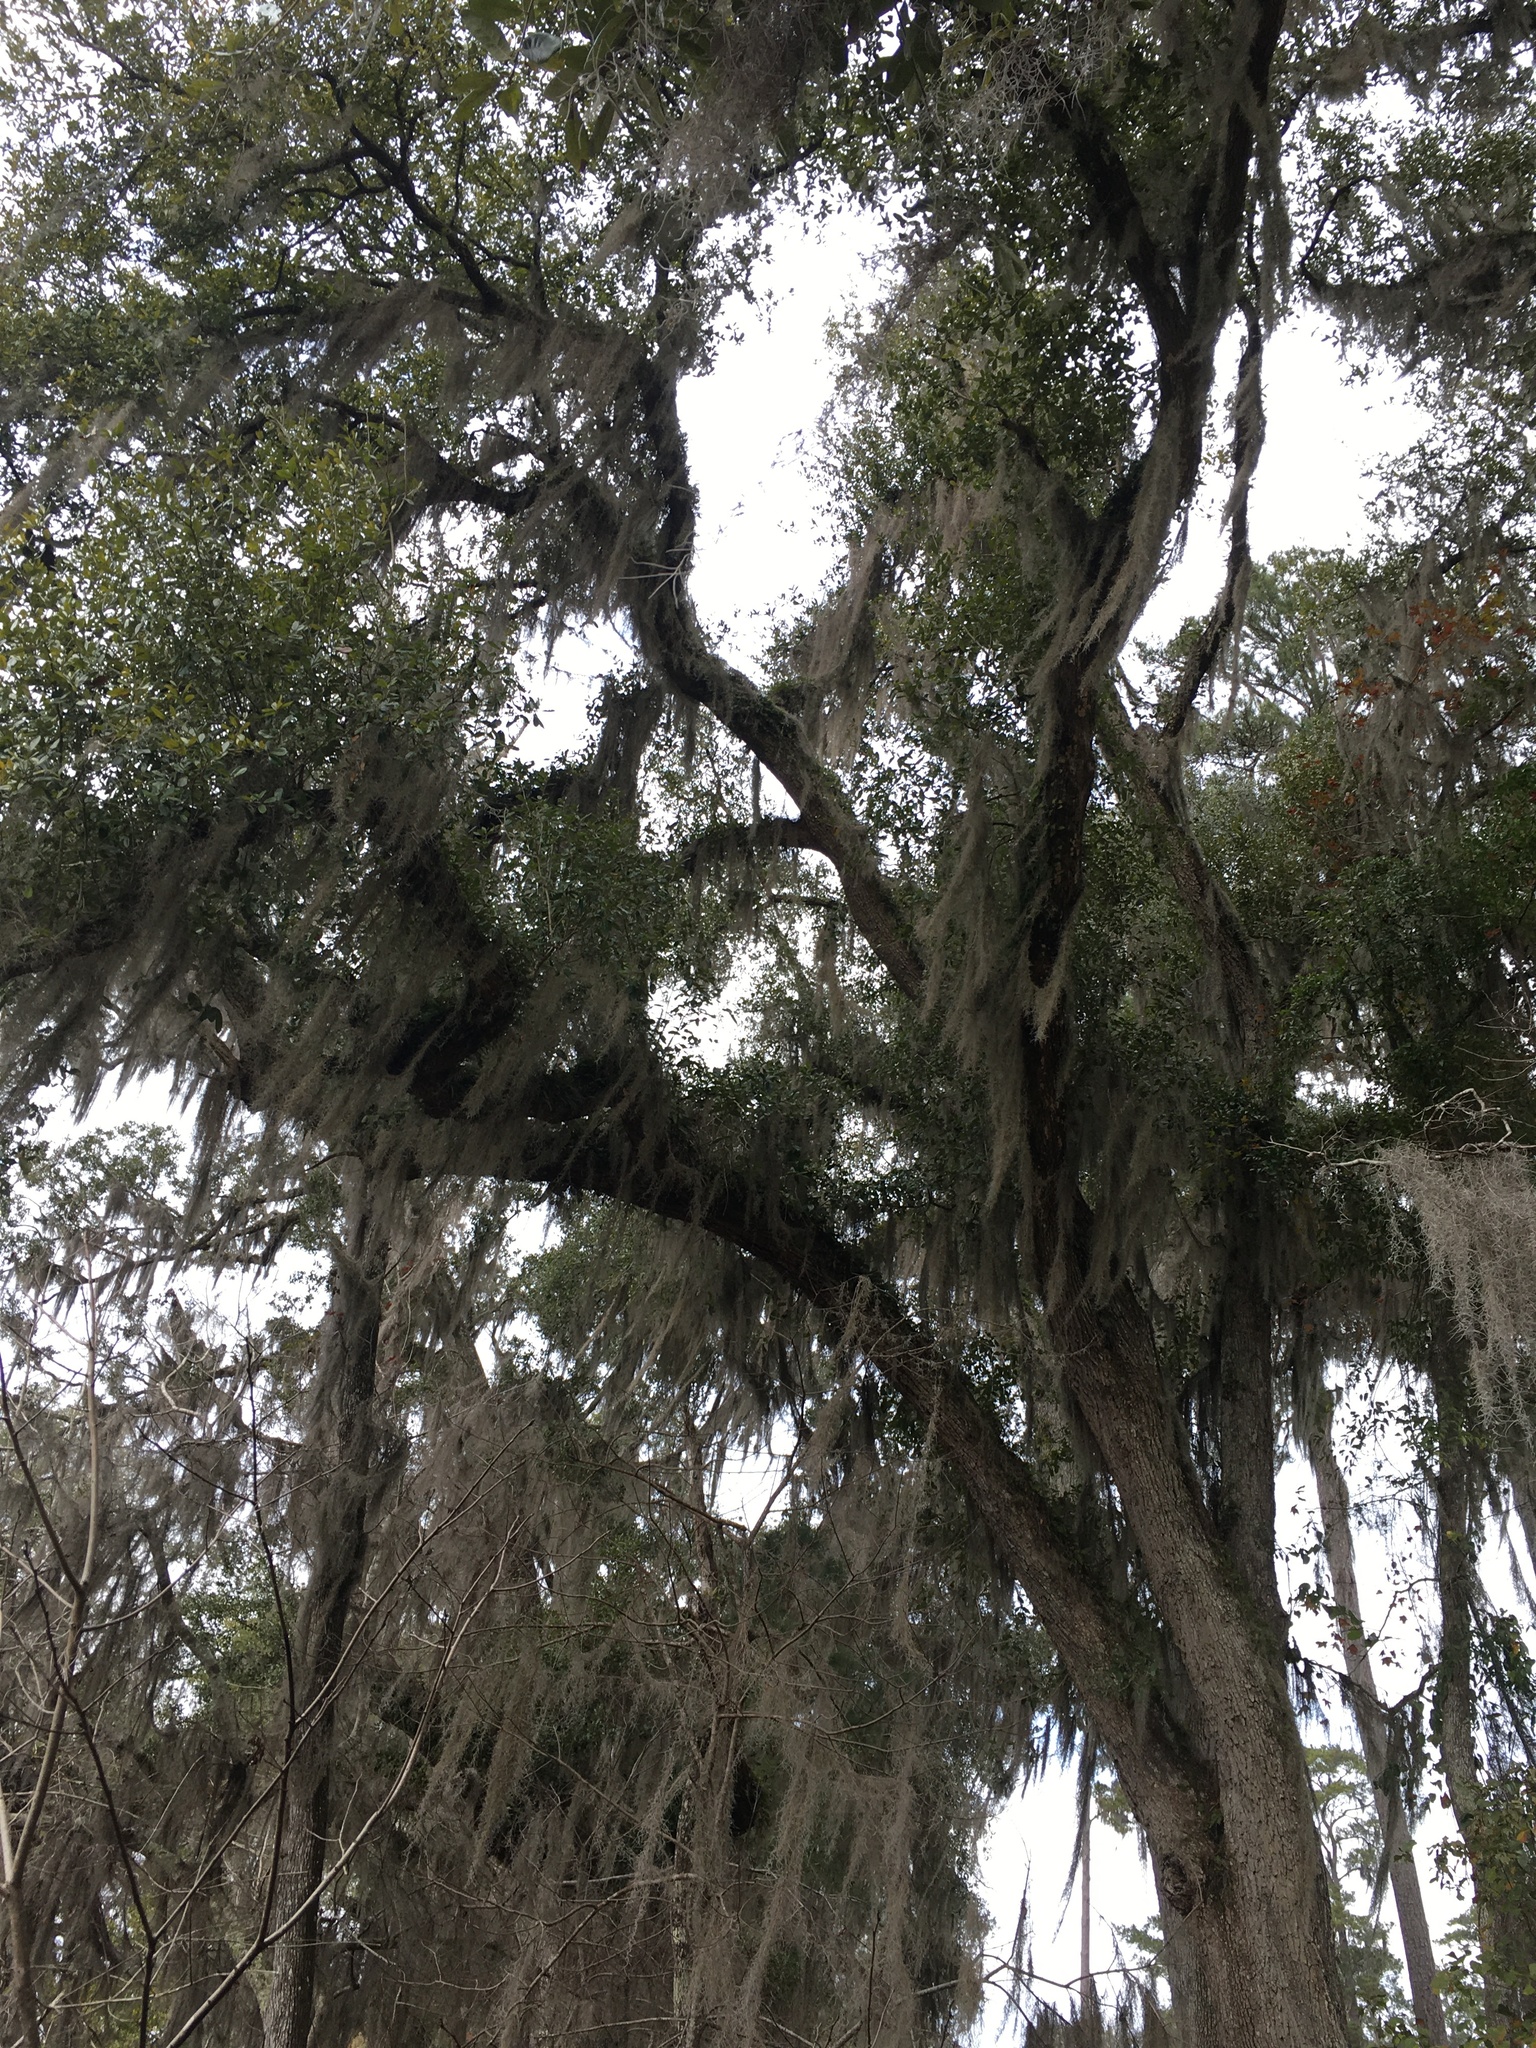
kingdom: Plantae
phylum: Tracheophyta
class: Magnoliopsida
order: Fagales
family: Fagaceae
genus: Quercus
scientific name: Quercus virginiana
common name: Southern live oak
